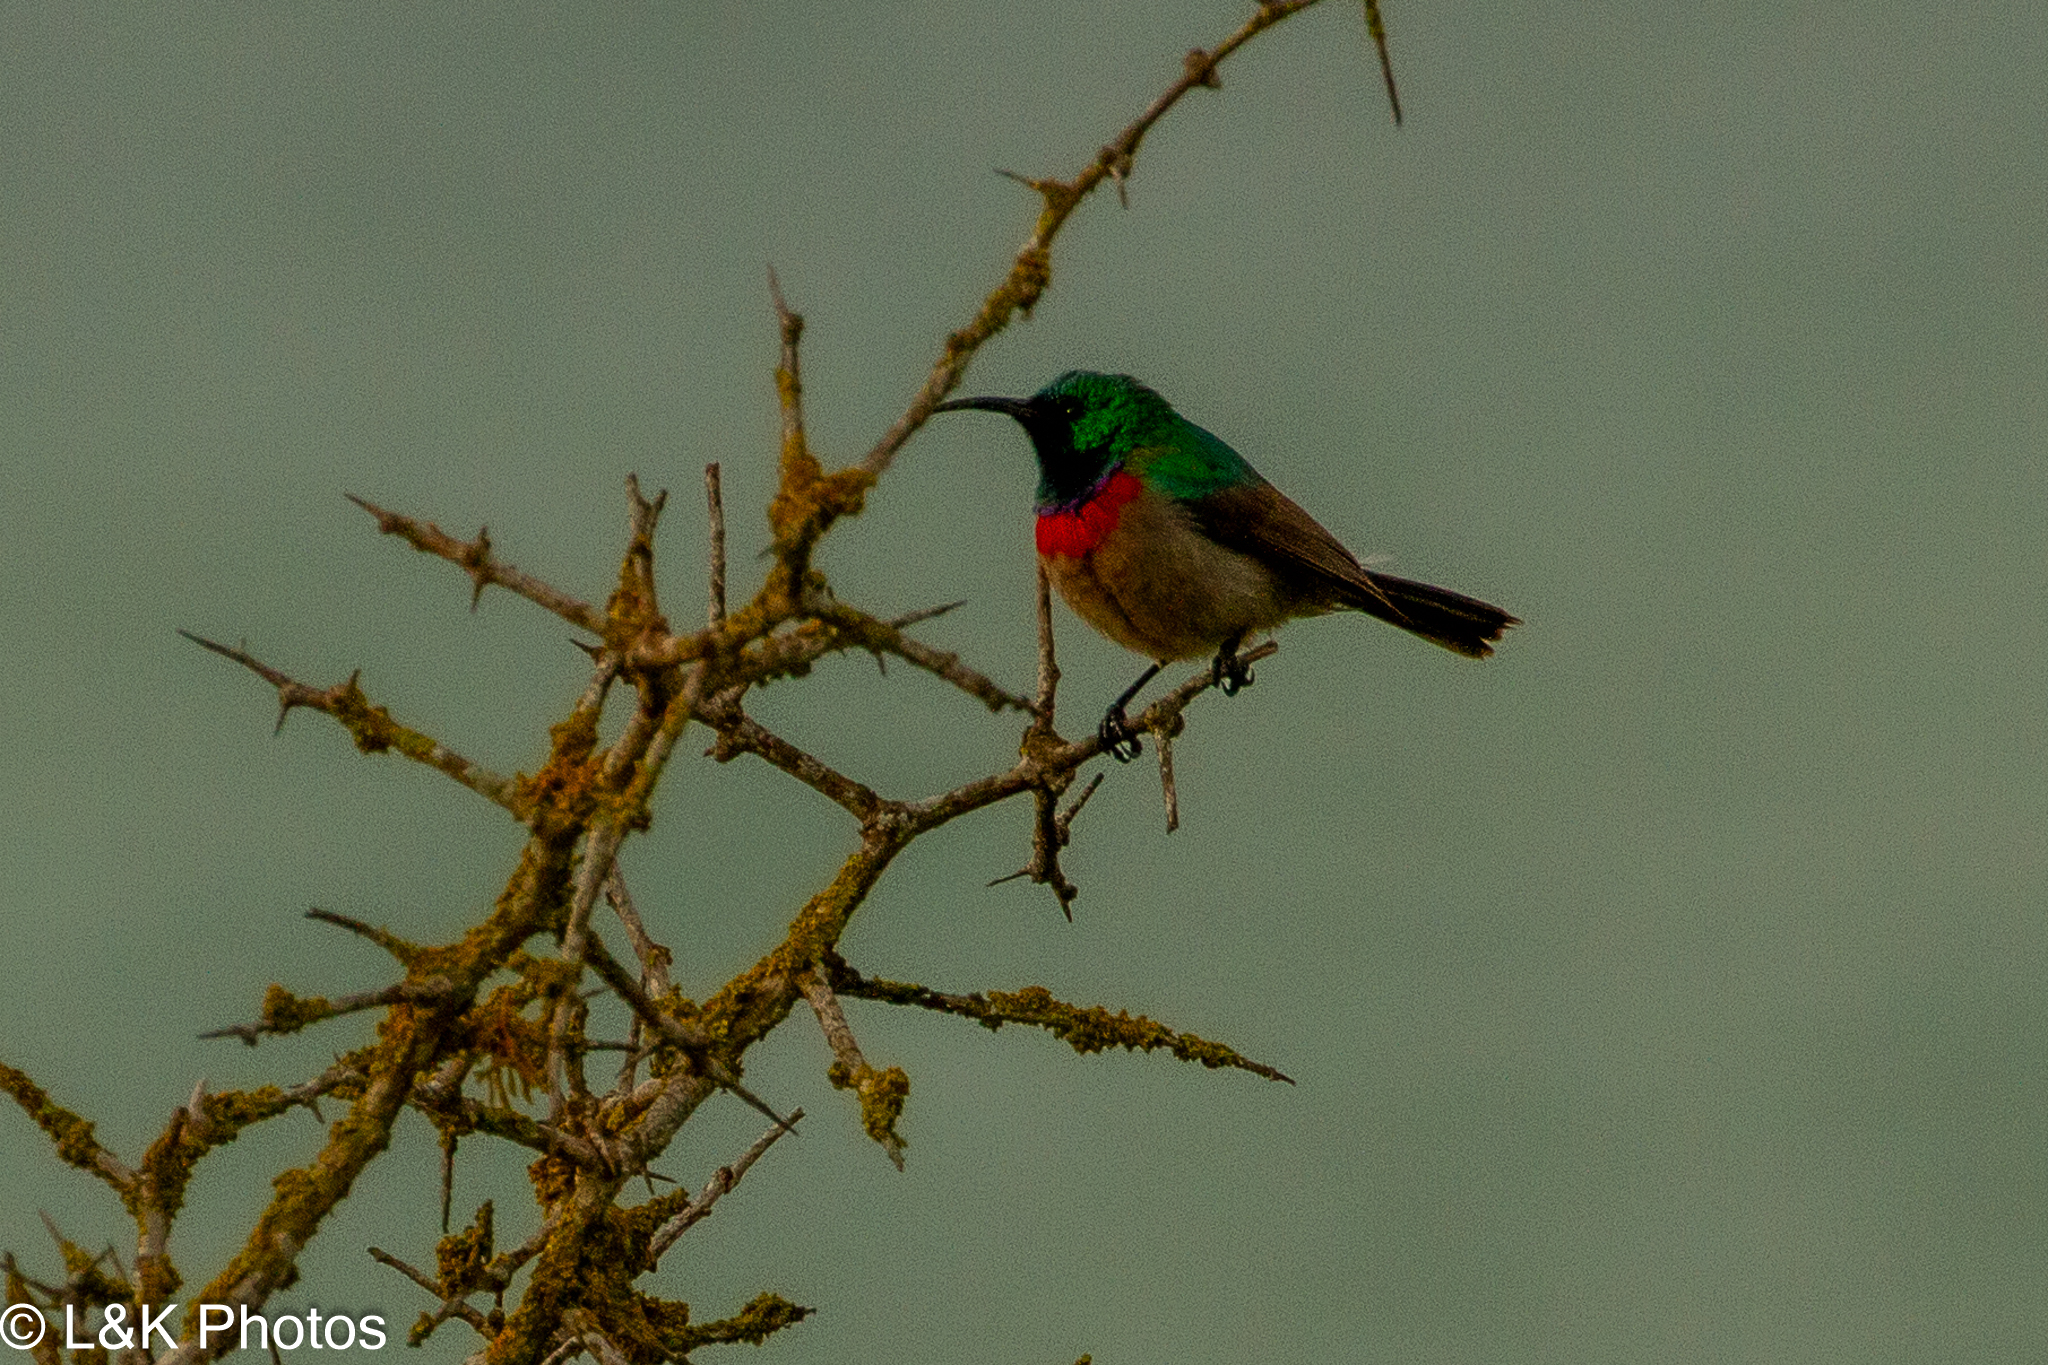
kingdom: Animalia
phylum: Chordata
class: Aves
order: Passeriformes
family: Nectariniidae
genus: Cinnyris
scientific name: Cinnyris chalybeus
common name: Southern double-collared sunbird
